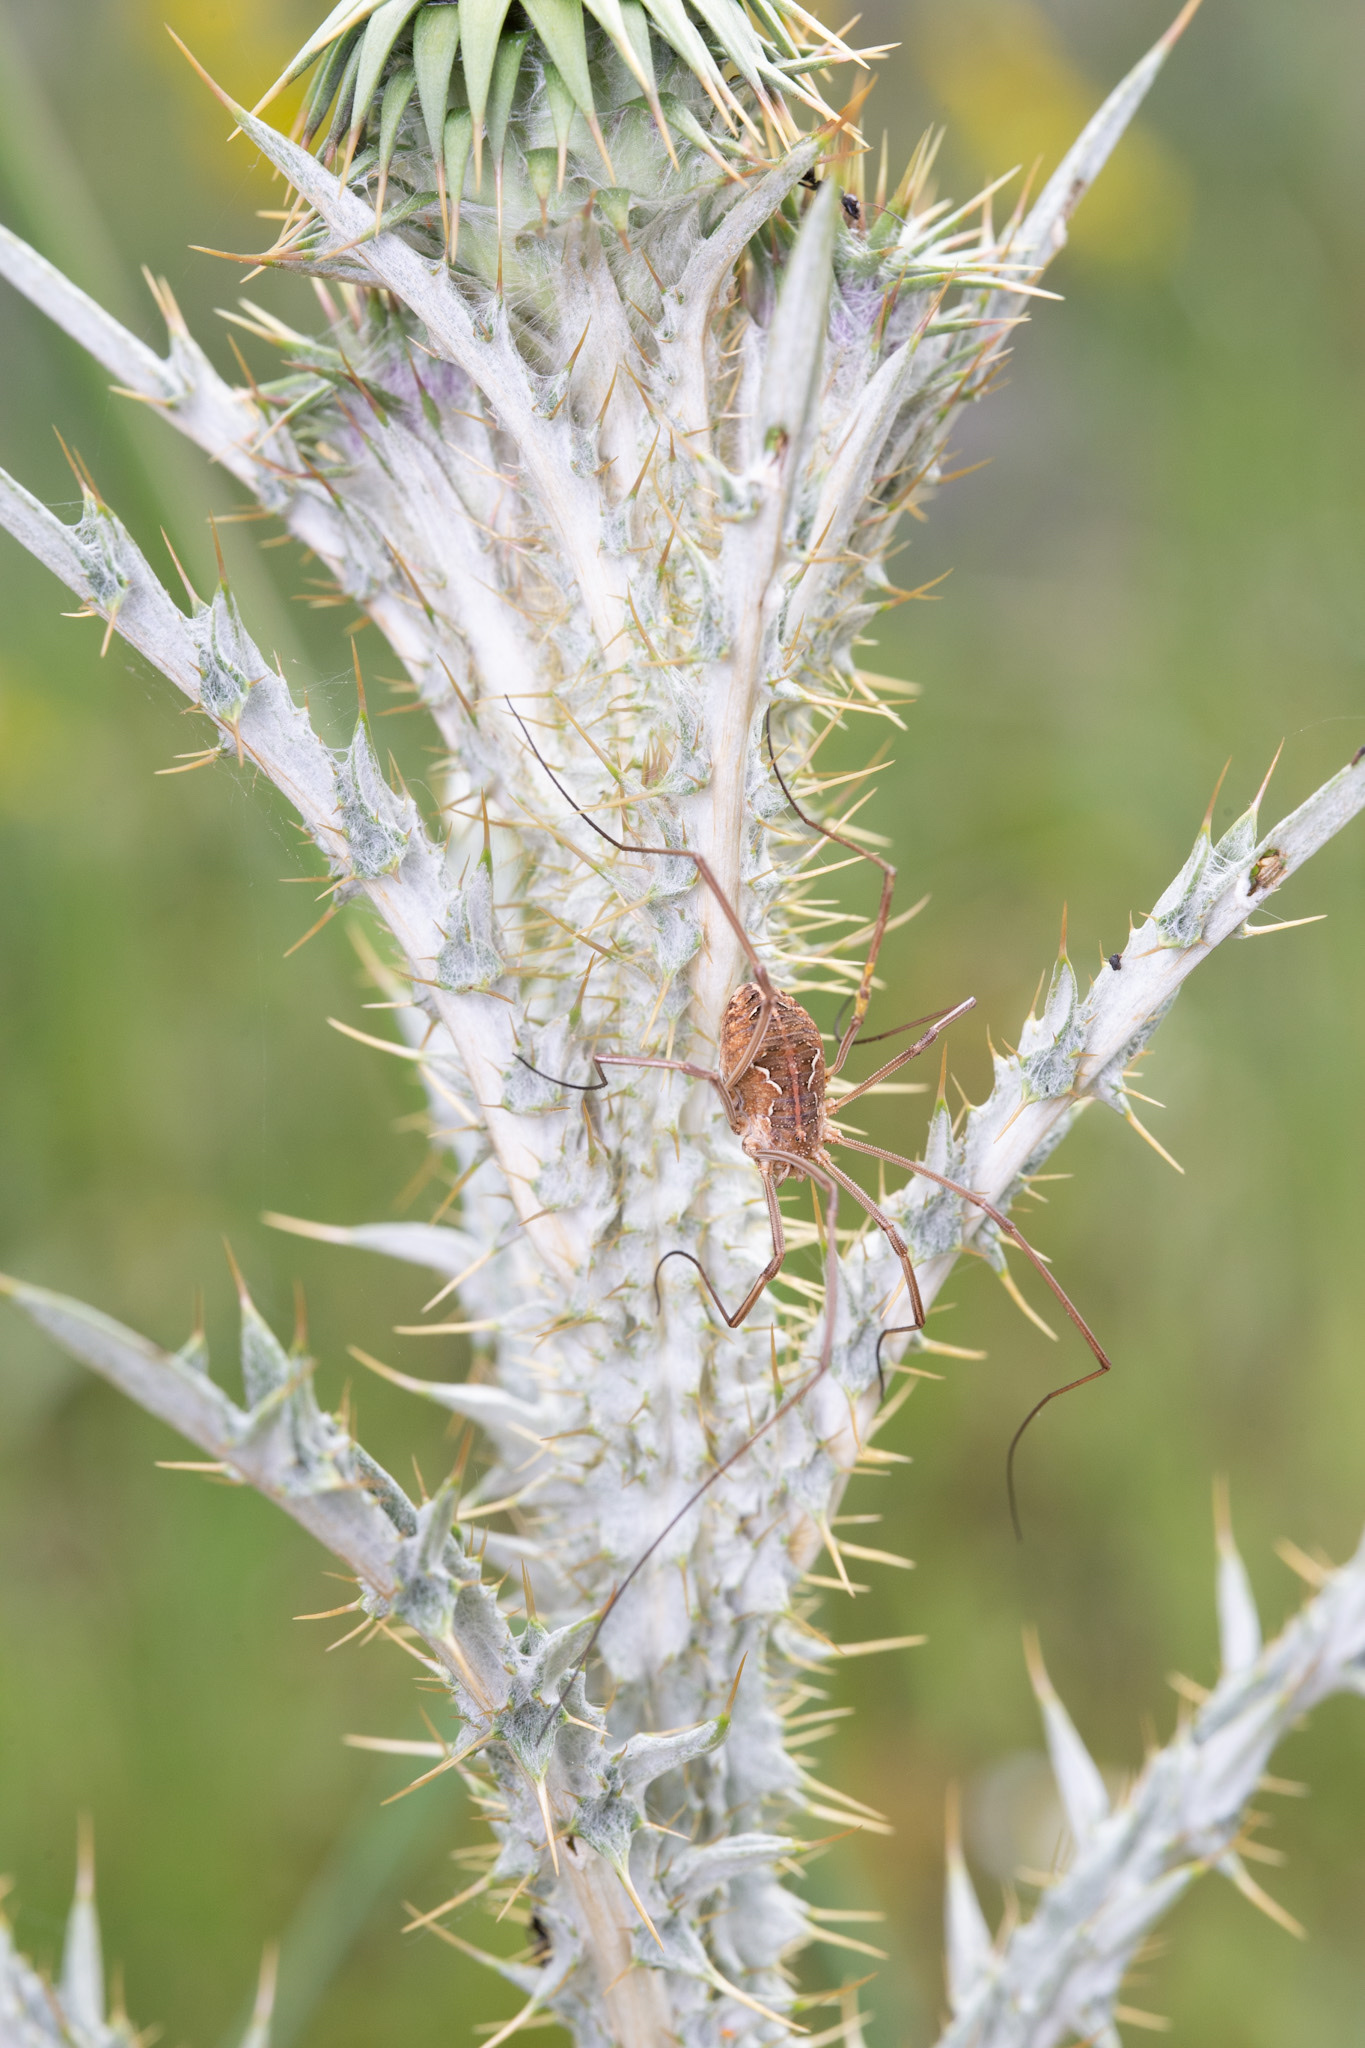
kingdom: Animalia
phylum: Arthropoda
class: Arachnida
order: Opiliones
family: Phalangiidae
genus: Metaphalangium
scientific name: Metaphalangium cirtanum
